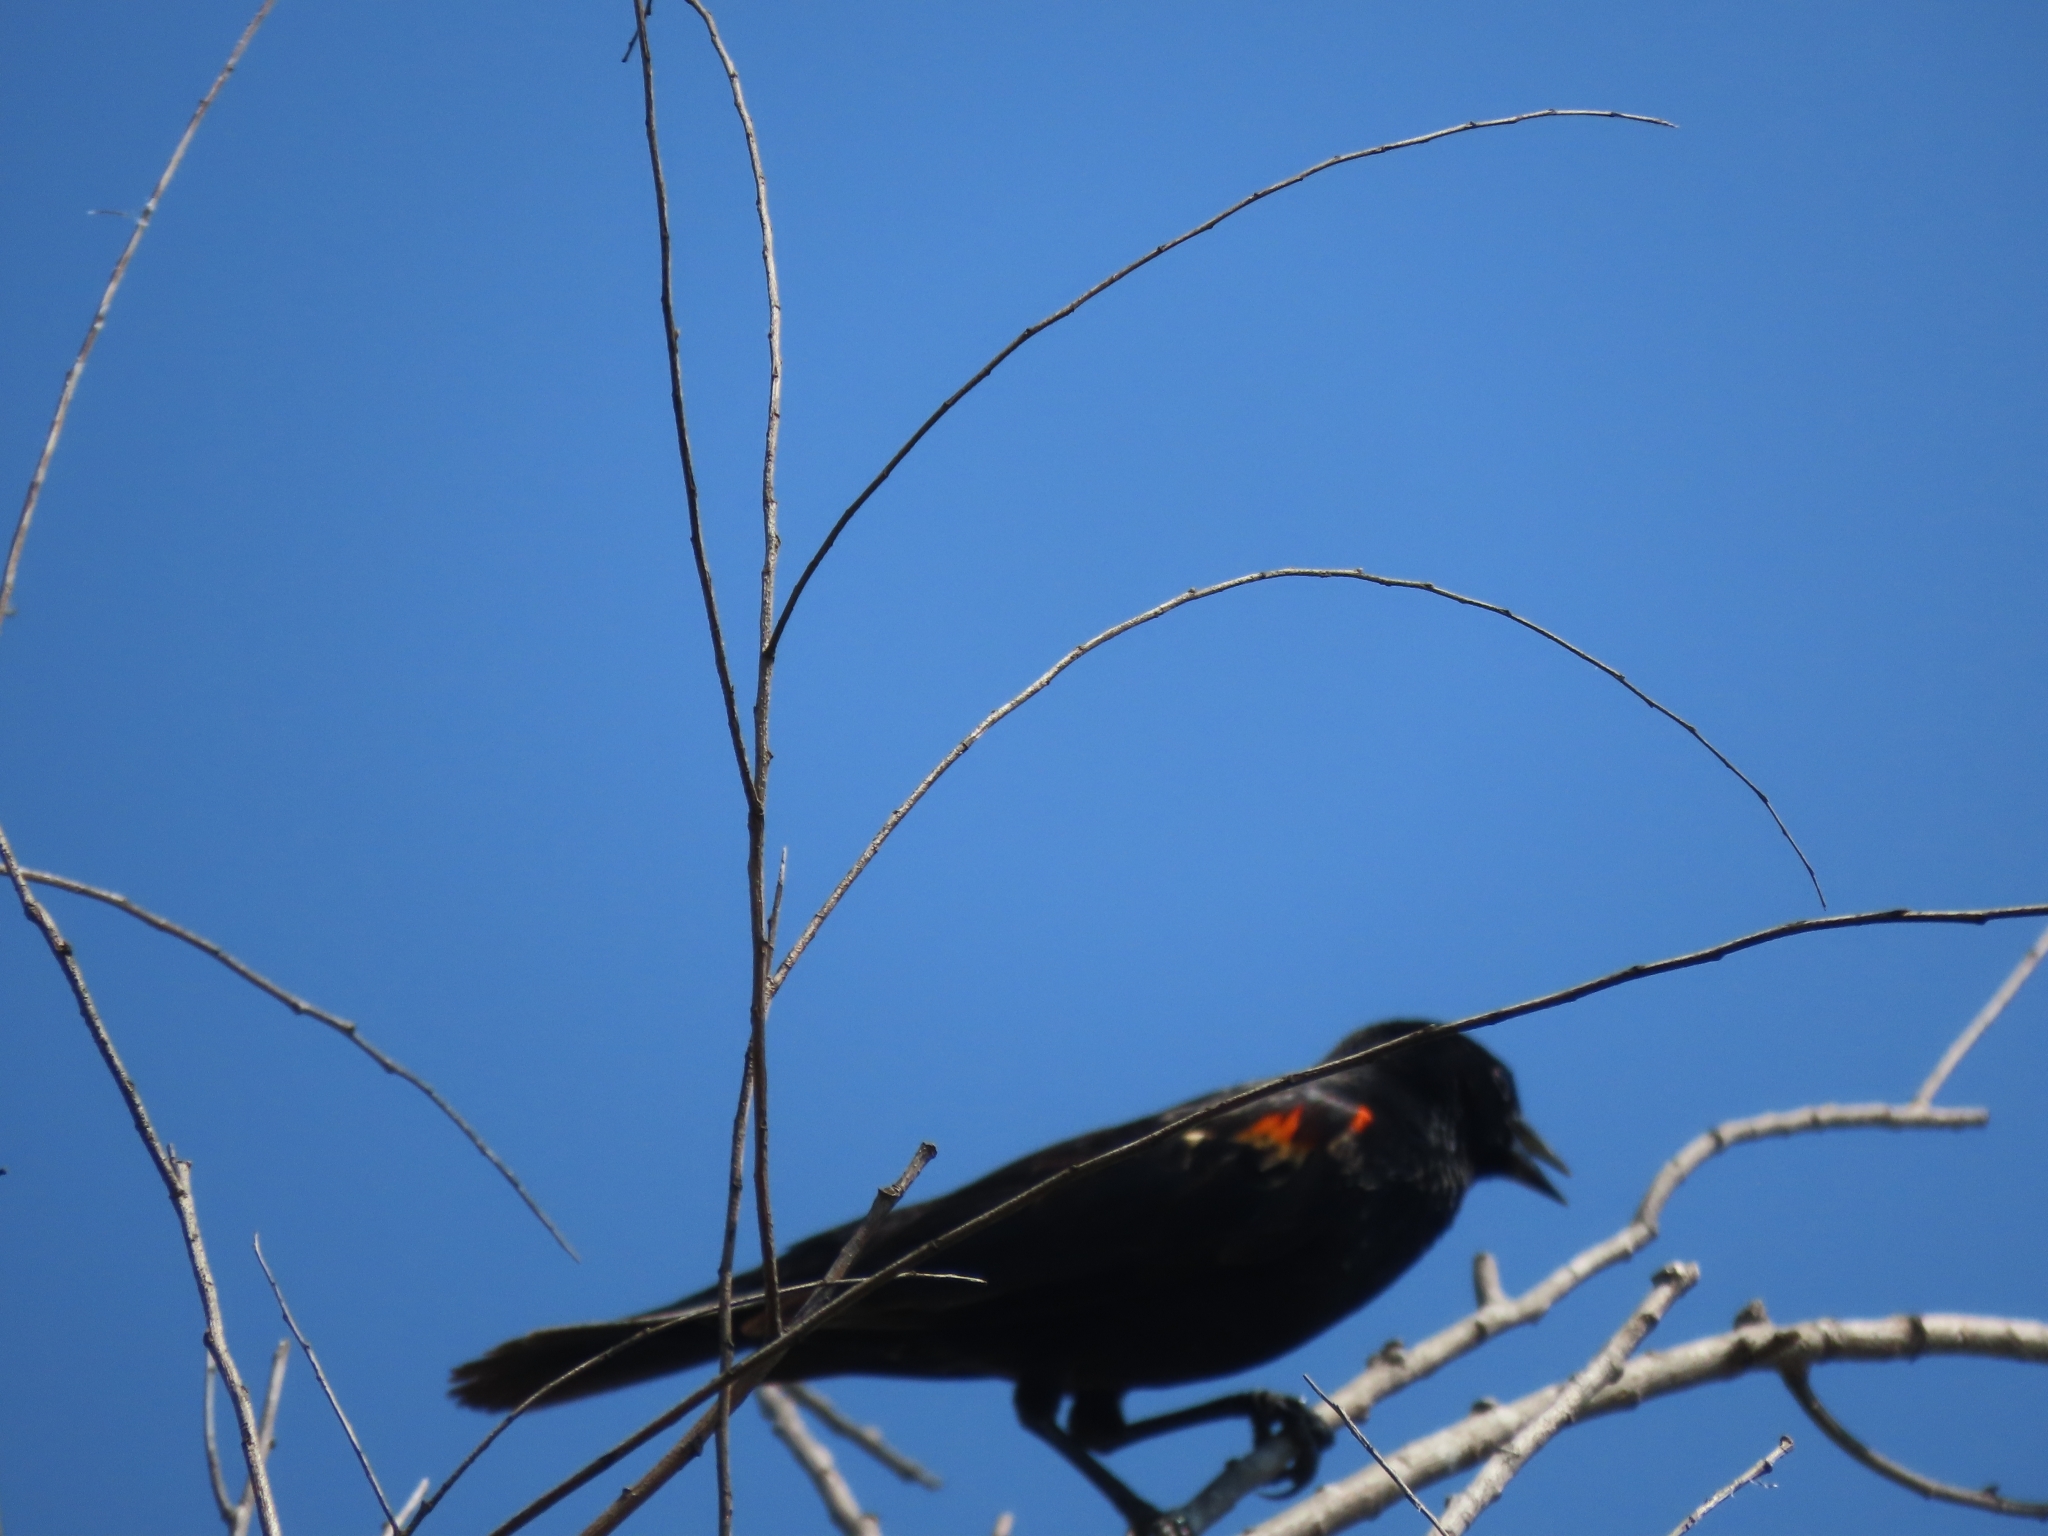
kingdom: Animalia
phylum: Chordata
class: Aves
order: Passeriformes
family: Icteridae
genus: Agelaius
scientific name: Agelaius phoeniceus
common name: Red-winged blackbird
